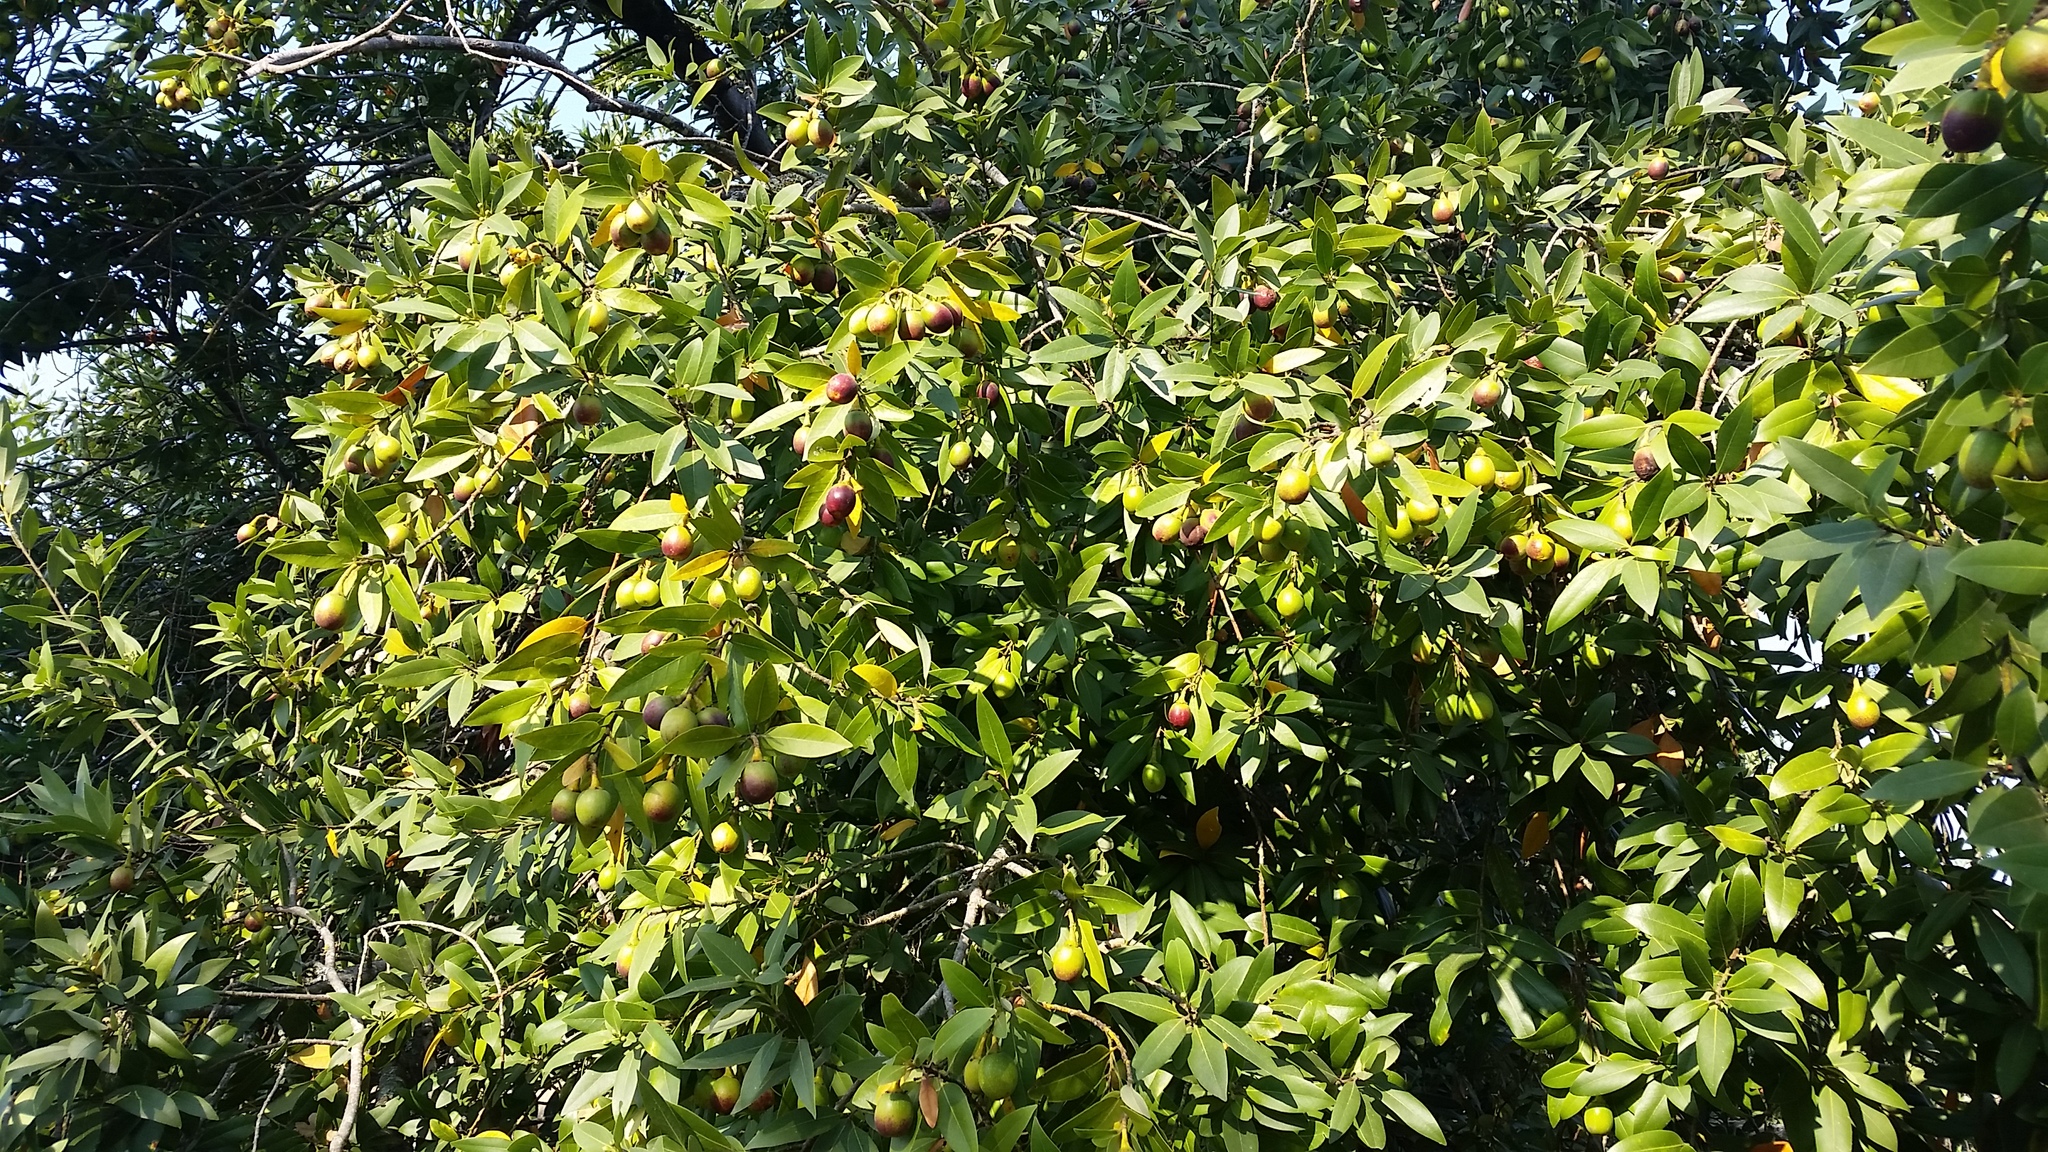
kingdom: Plantae
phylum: Tracheophyta
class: Magnoliopsida
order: Laurales
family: Lauraceae
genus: Umbellularia
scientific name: Umbellularia californica
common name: California bay
